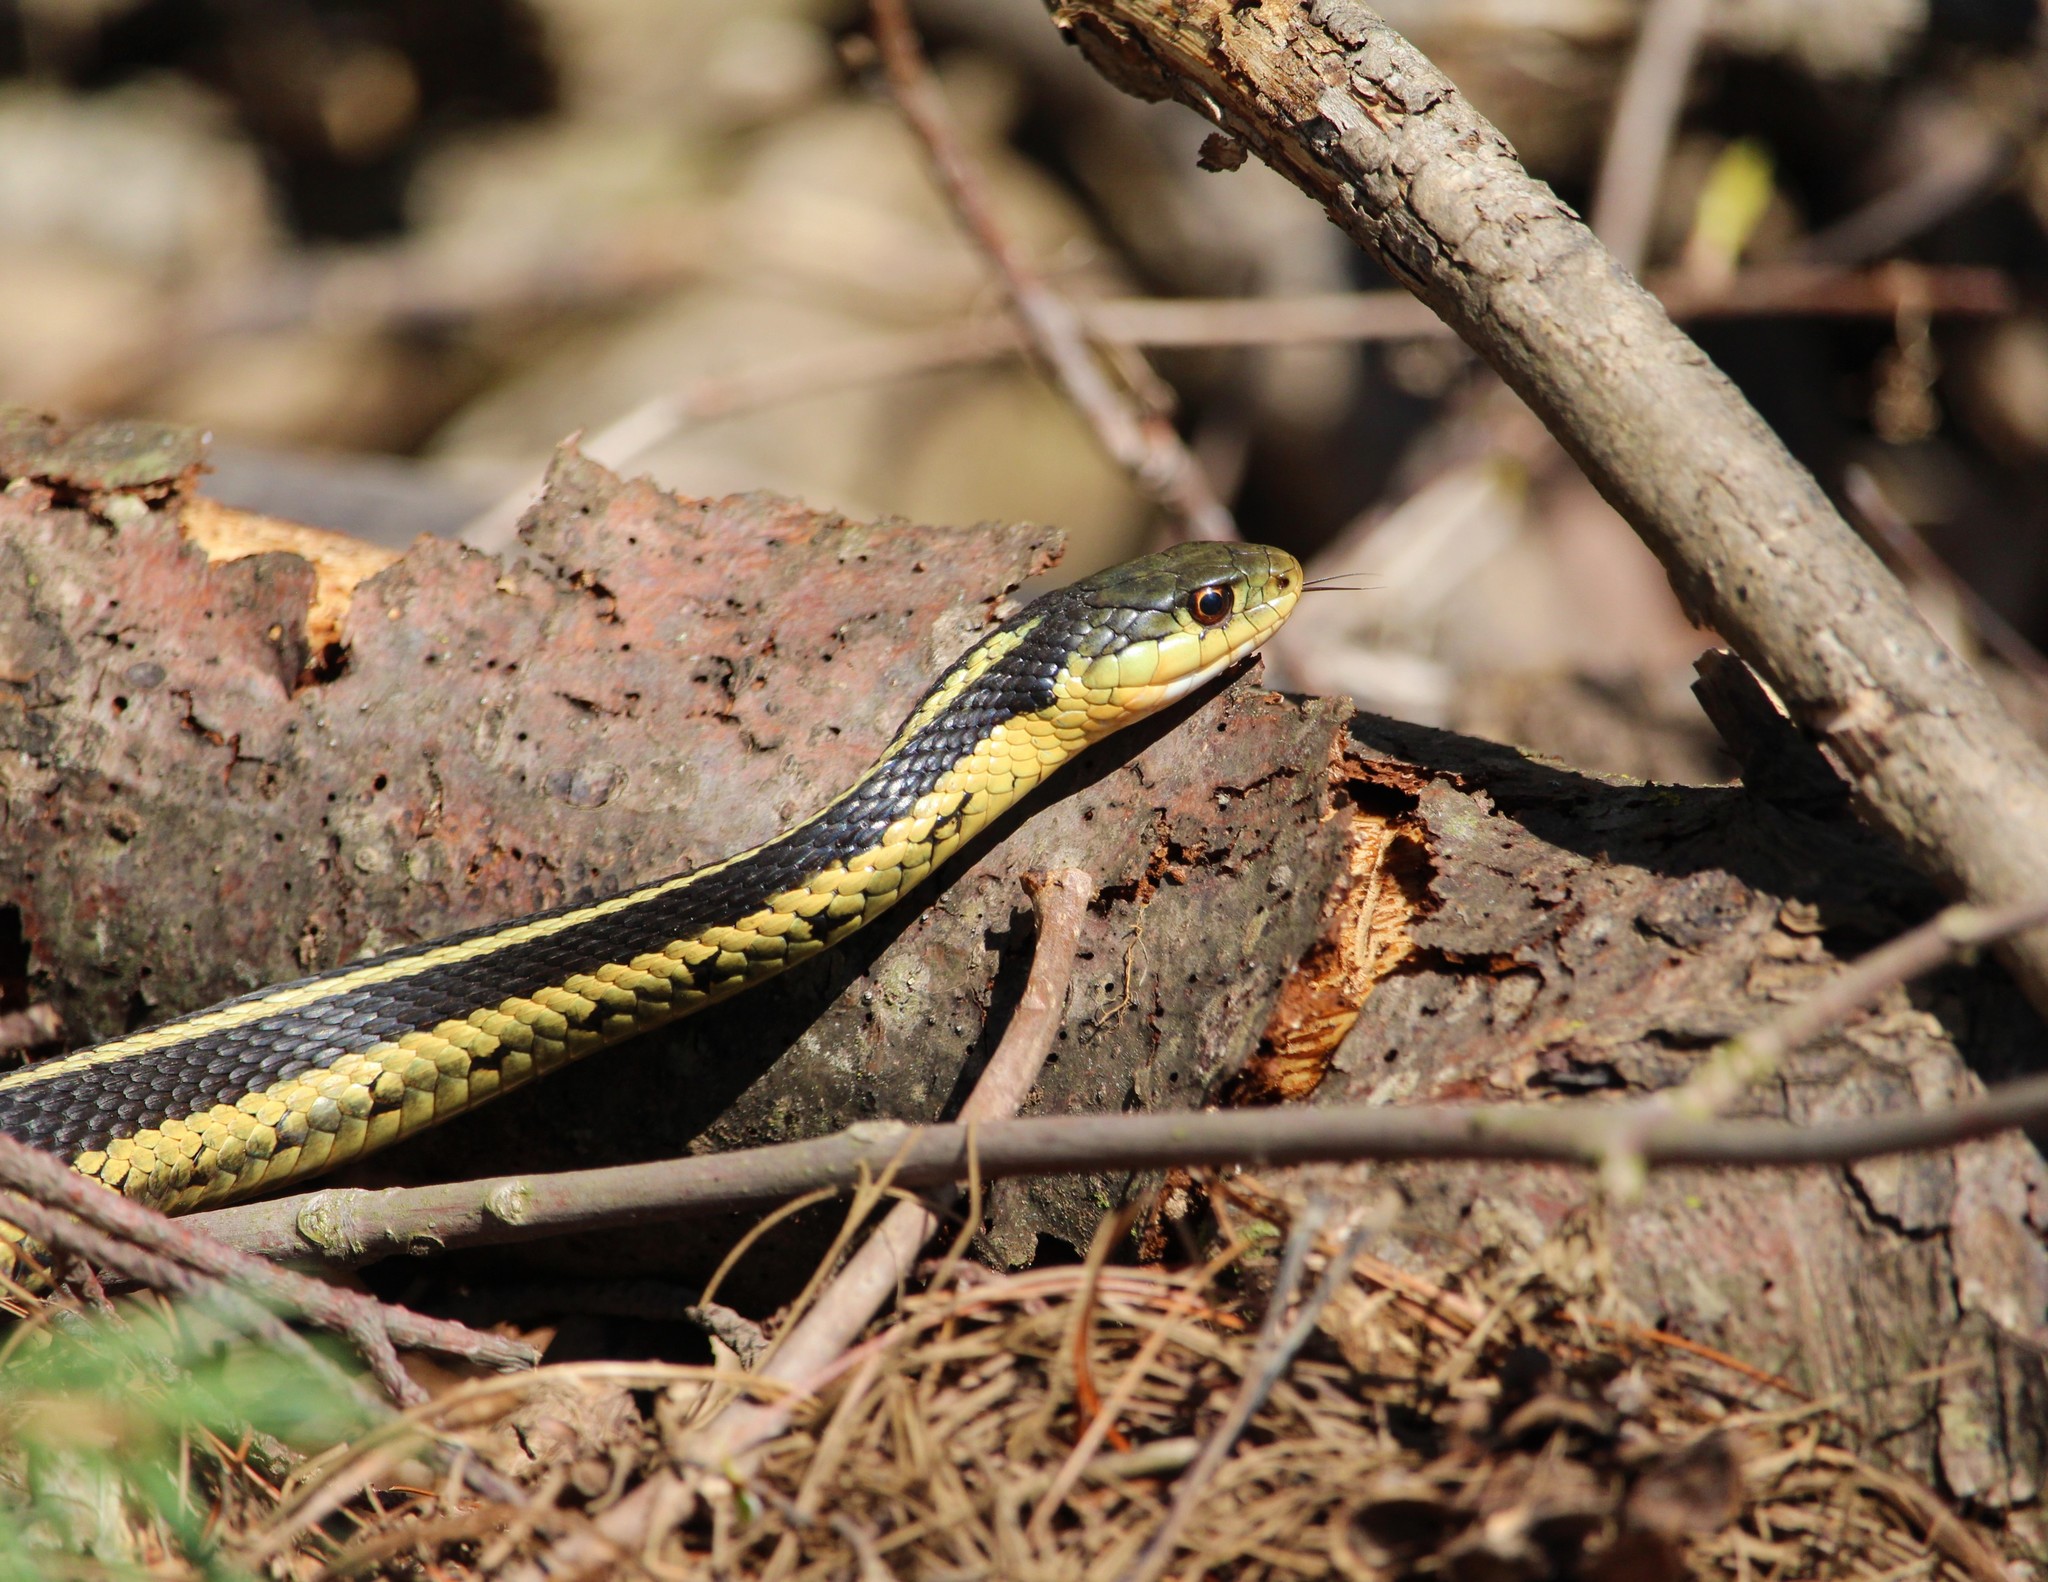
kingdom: Animalia
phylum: Chordata
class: Squamata
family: Colubridae
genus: Thamnophis
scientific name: Thamnophis sirtalis
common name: Common garter snake
